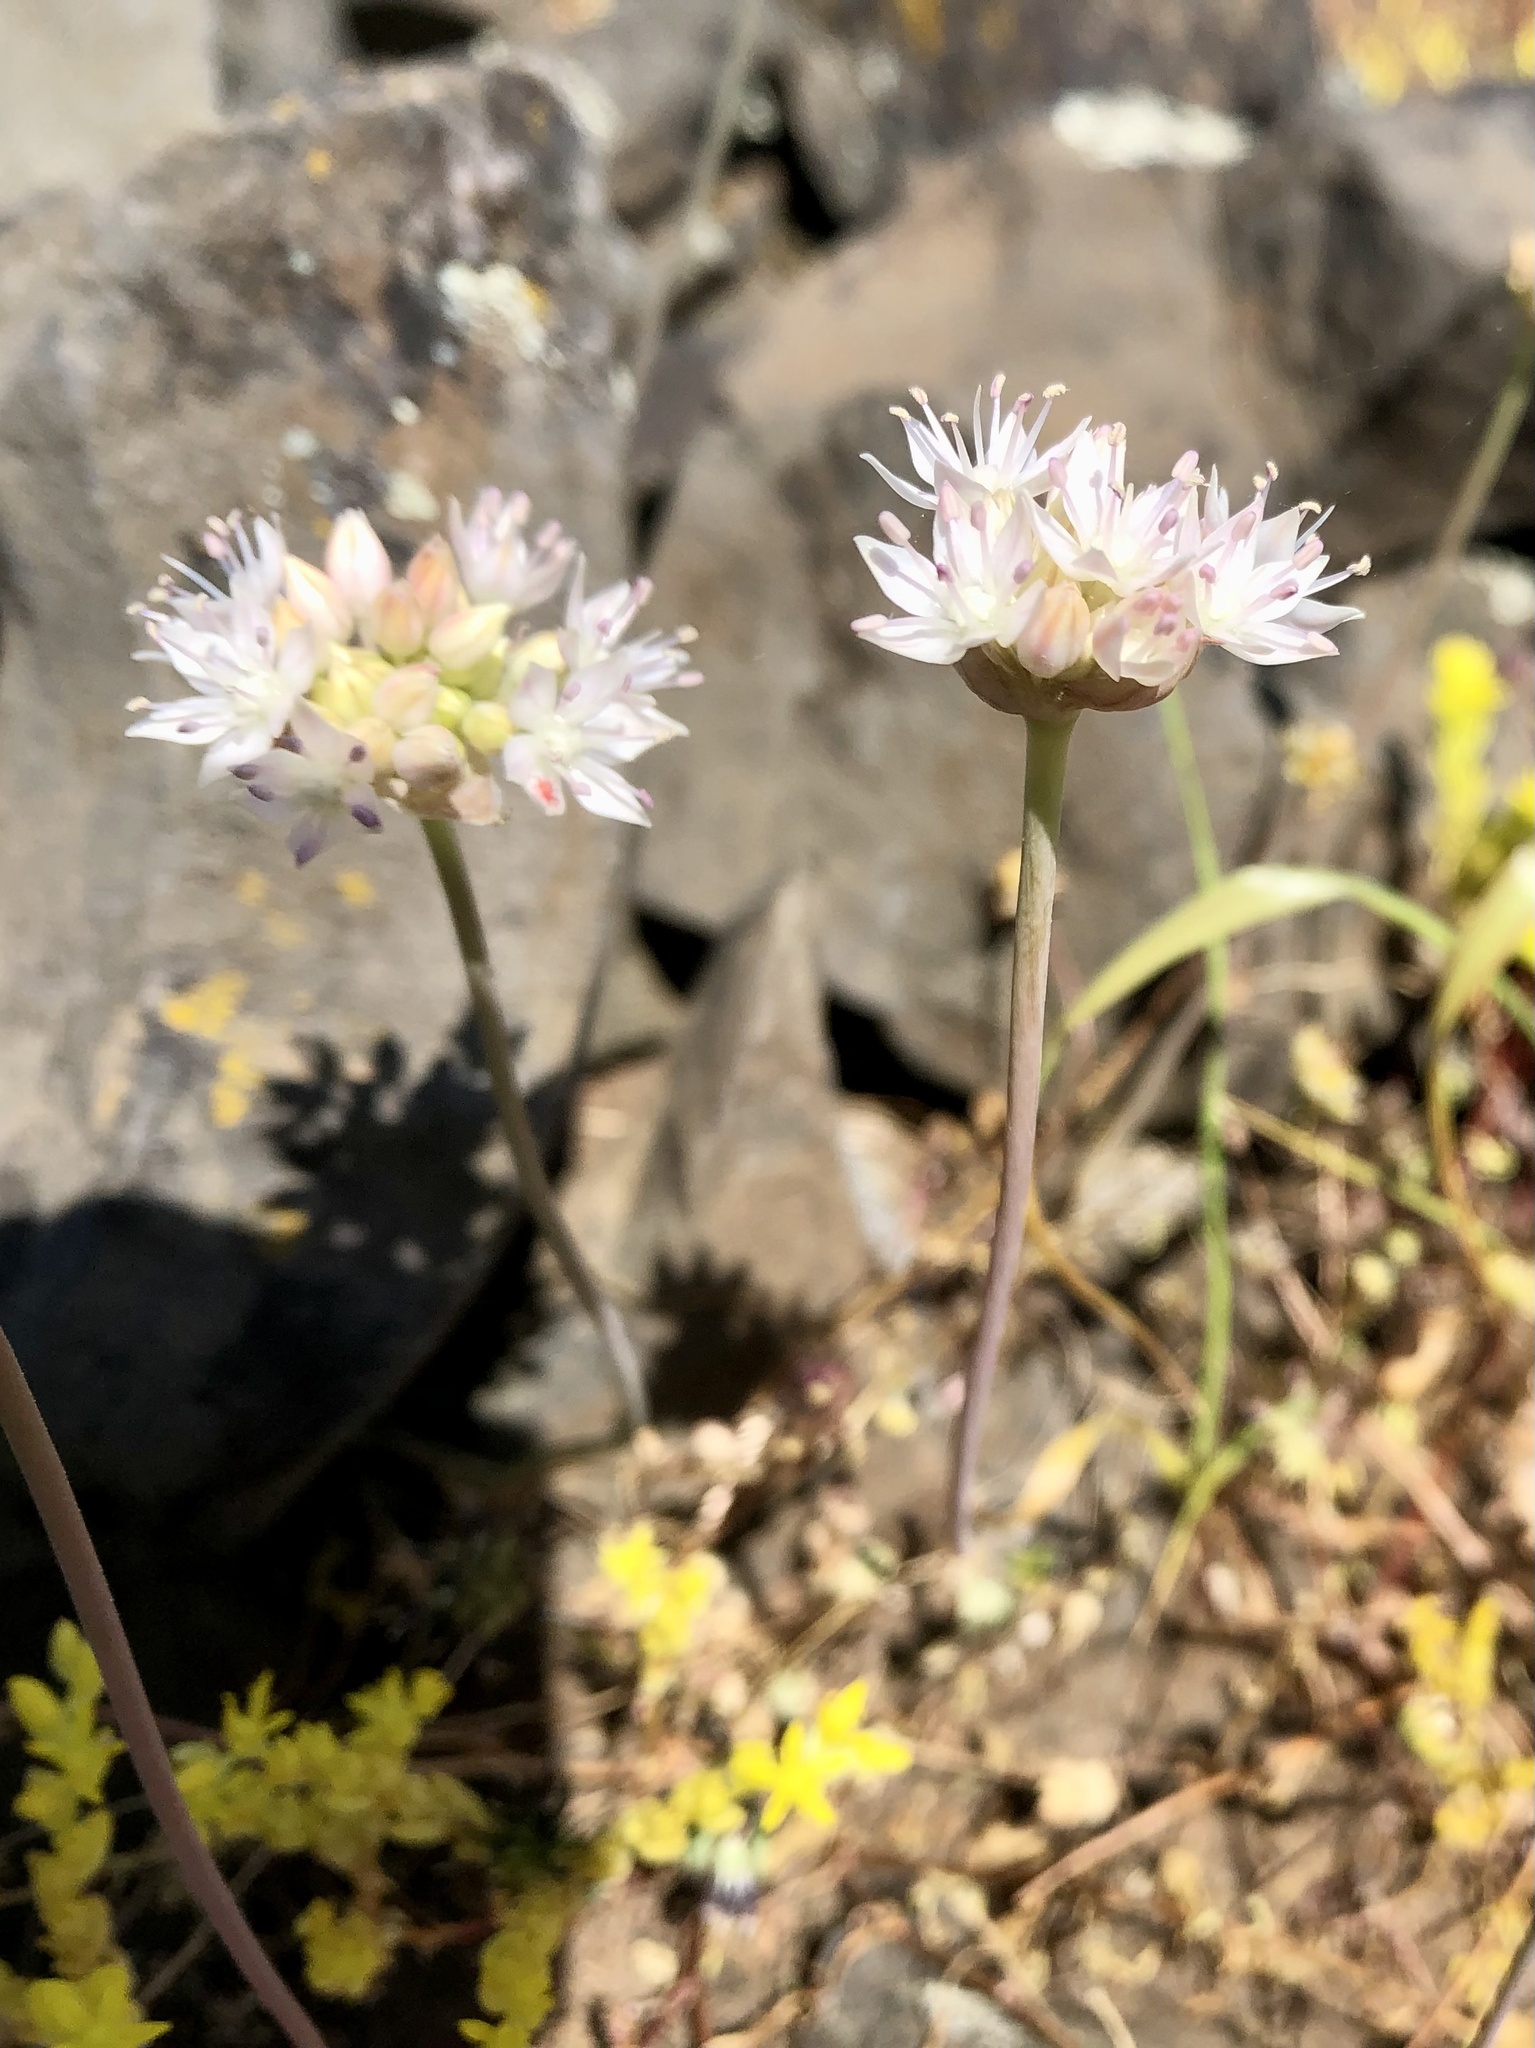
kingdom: Plantae
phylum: Tracheophyta
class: Liliopsida
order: Asparagales
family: Amaryllidaceae
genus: Allium
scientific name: Allium amplectens
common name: Narrow-leaved onion
